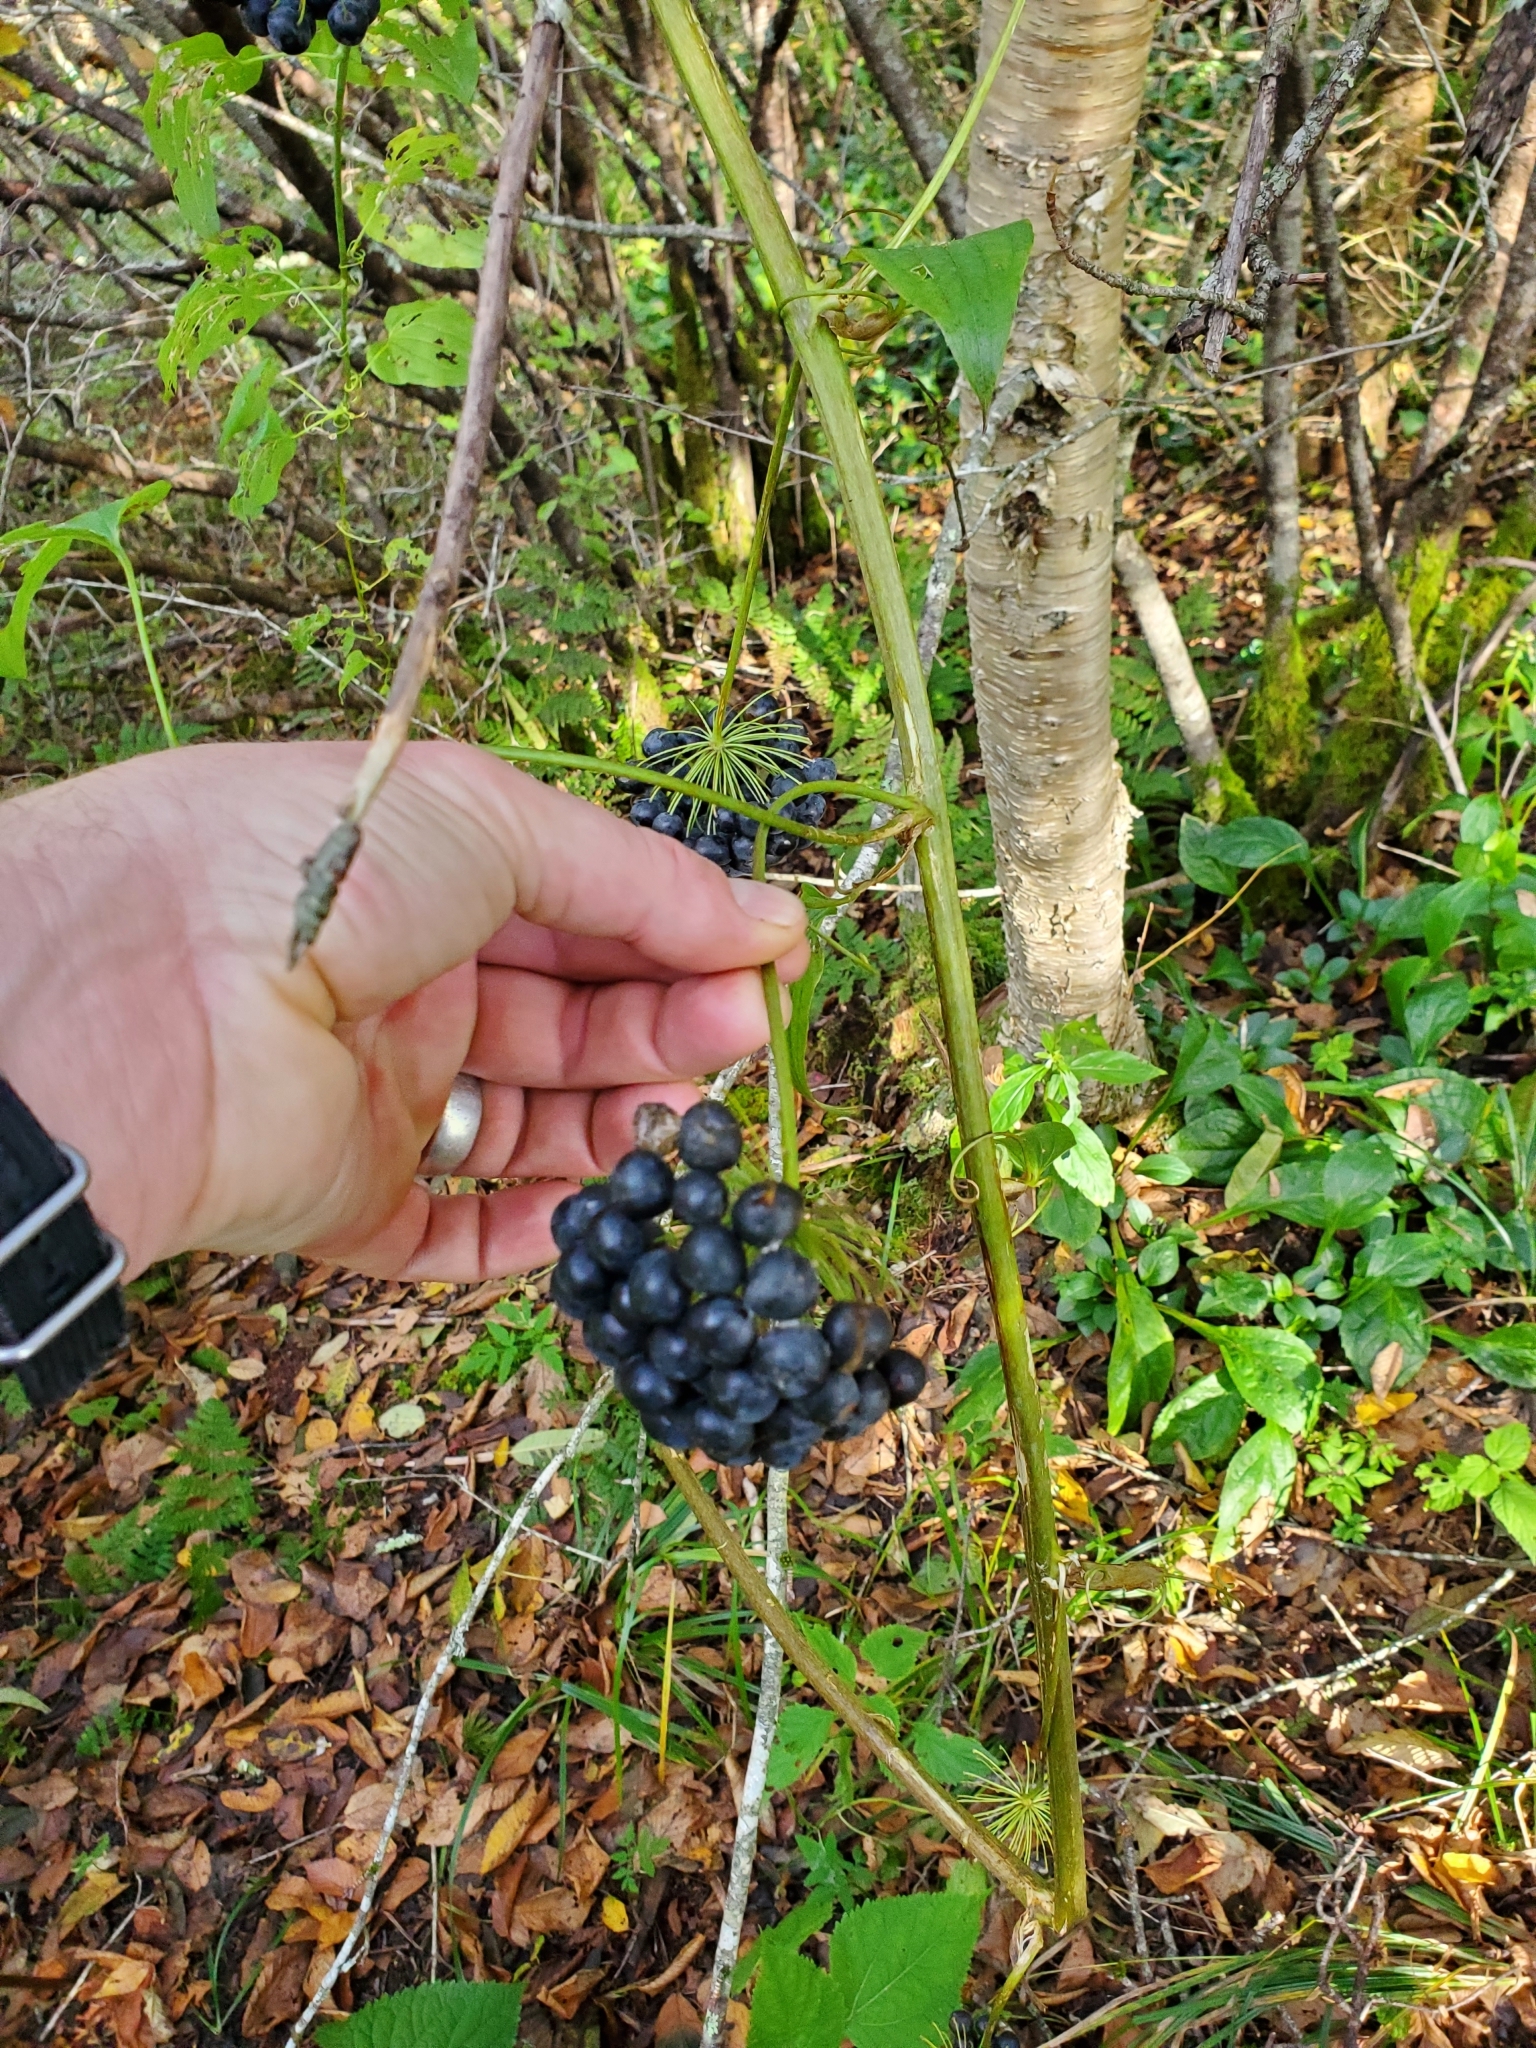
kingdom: Plantae
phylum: Tracheophyta
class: Liliopsida
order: Liliales
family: Smilacaceae
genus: Smilax
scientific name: Smilax herbacea
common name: Jacob's-ladder
